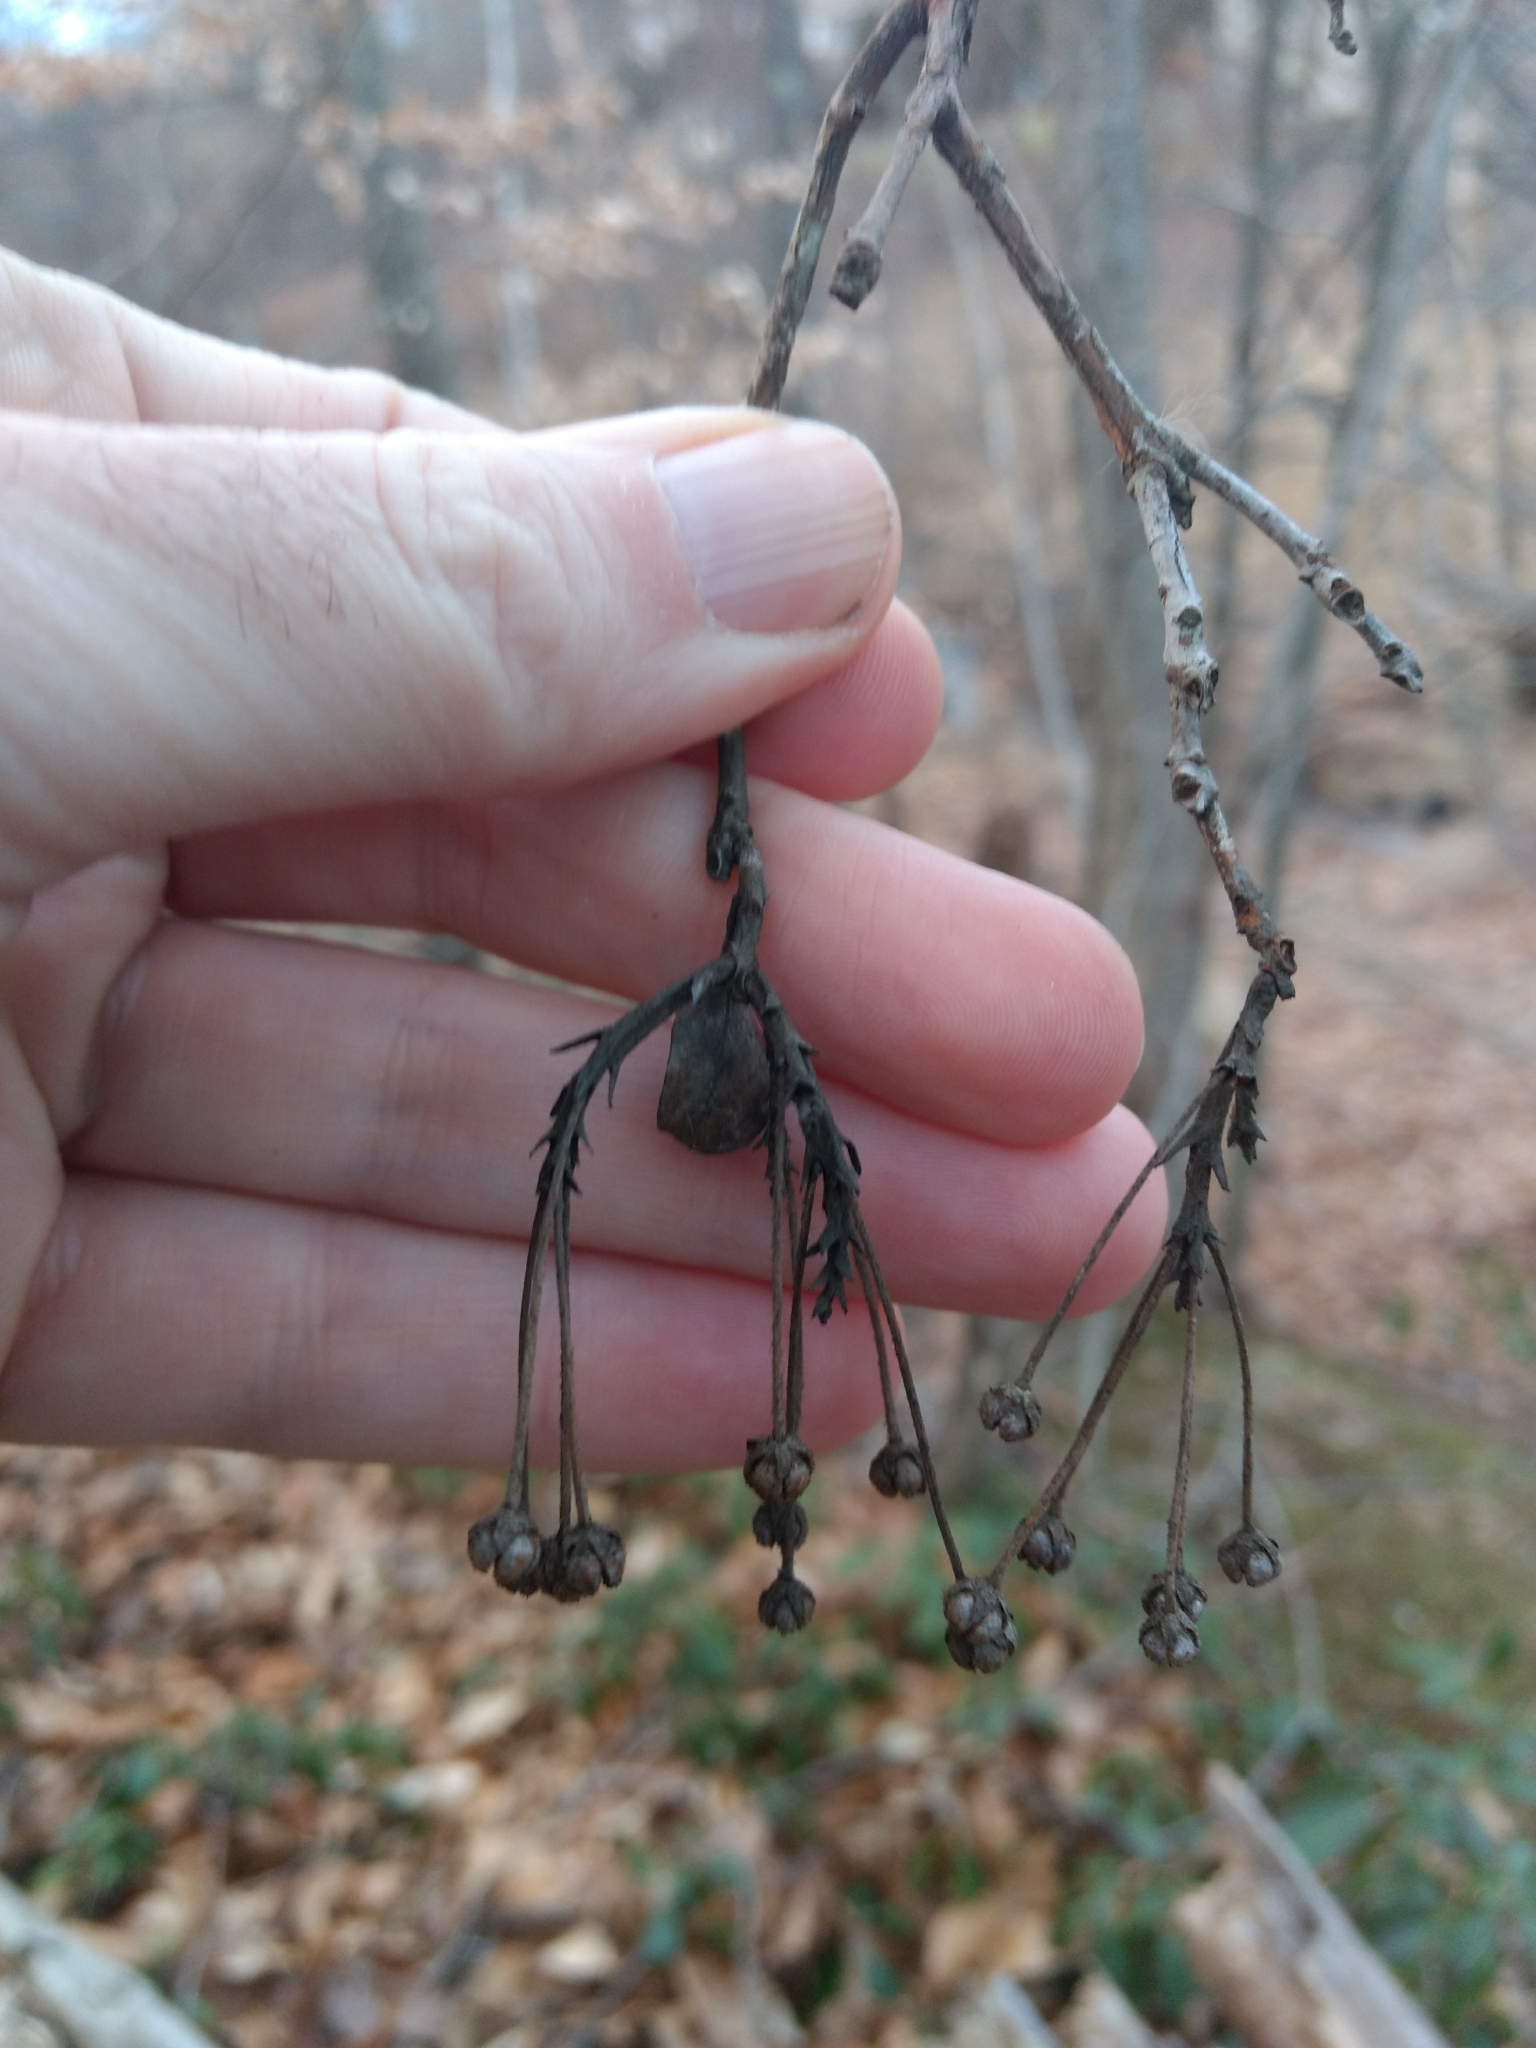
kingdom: Plantae
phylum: Tracheophyta
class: Magnoliopsida
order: Ericales
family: Ericaceae
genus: Kalmia
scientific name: Kalmia latifolia
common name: Mountain-laurel
